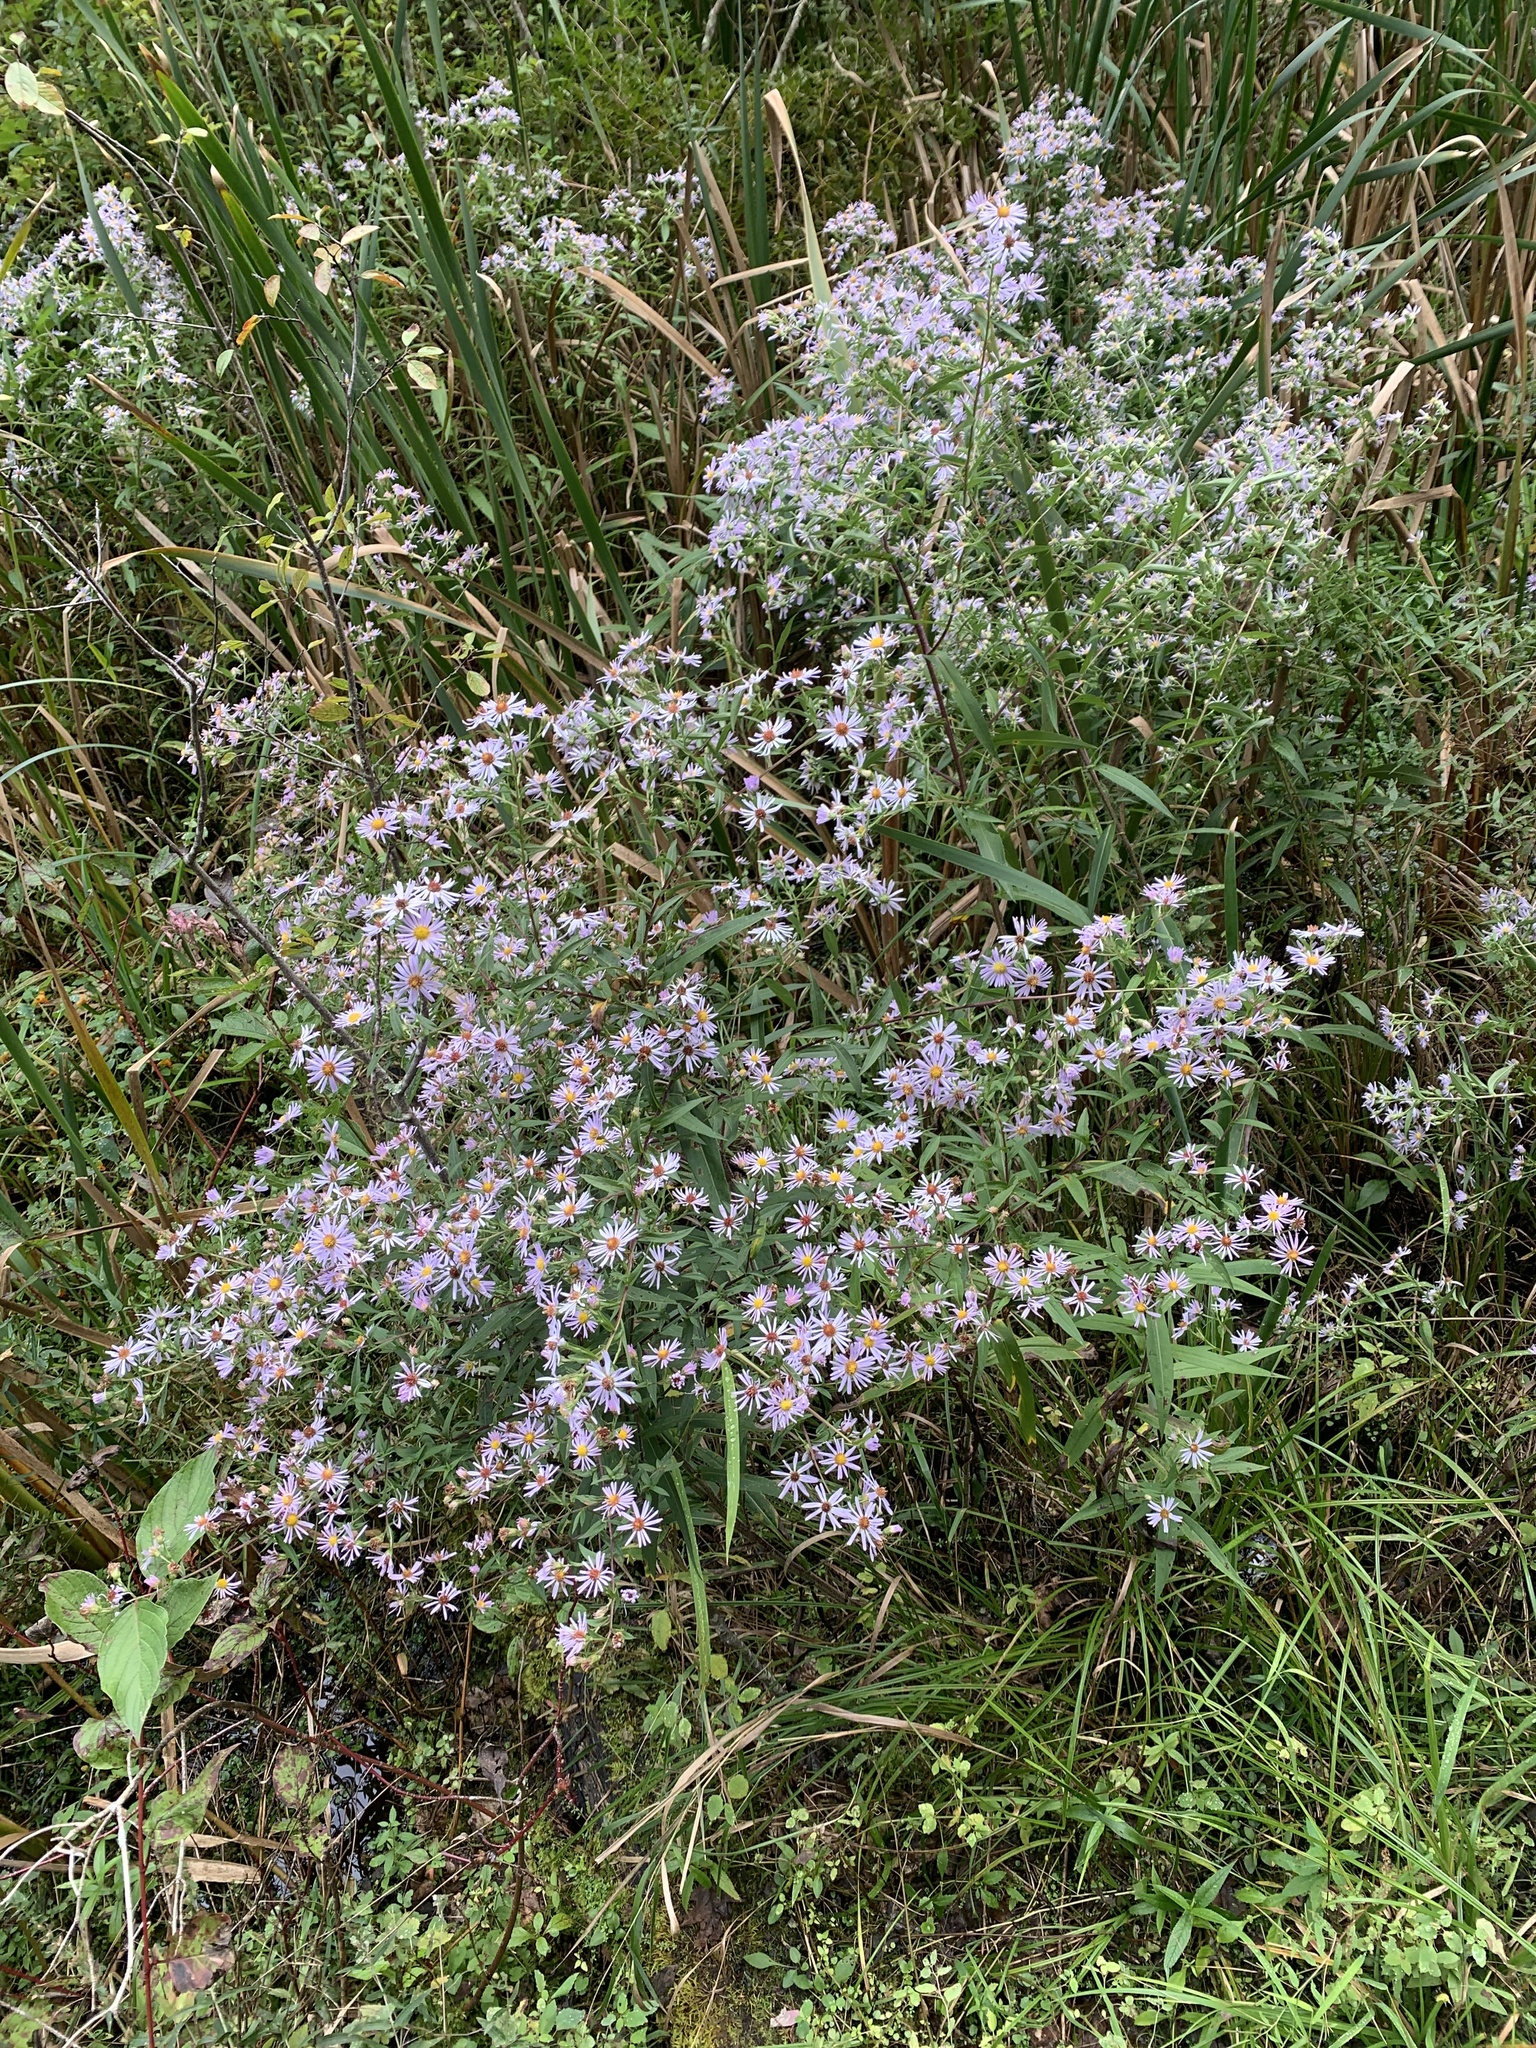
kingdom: Plantae
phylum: Tracheophyta
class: Magnoliopsida
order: Asterales
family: Asteraceae
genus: Symphyotrichum
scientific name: Symphyotrichum puniceum
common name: Bog aster
